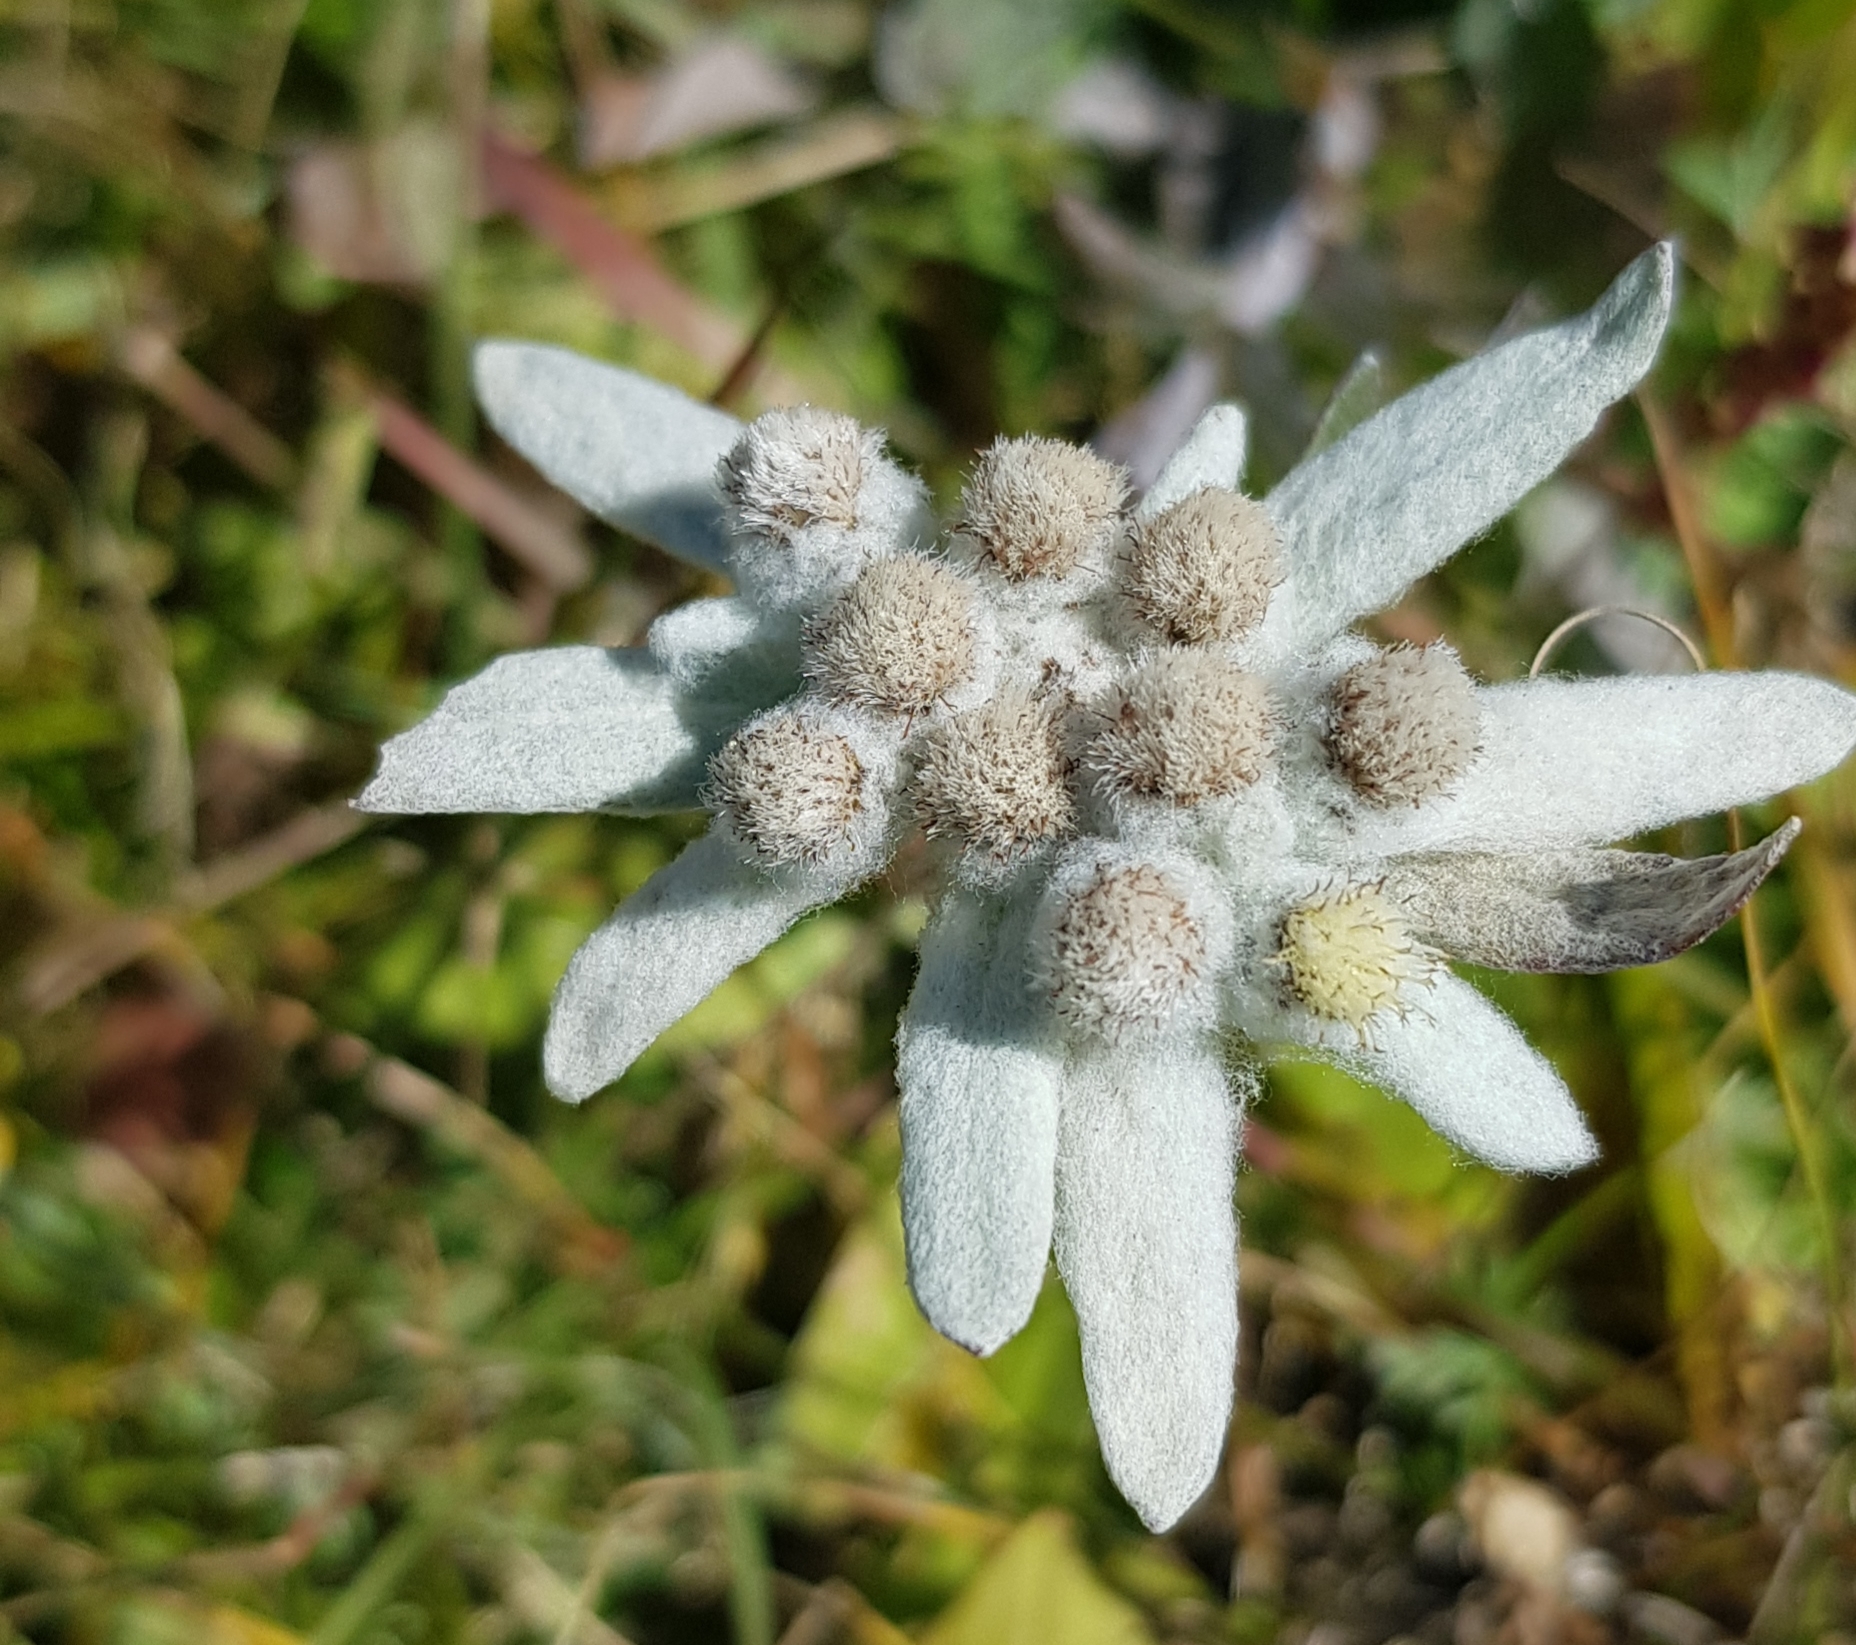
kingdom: Plantae
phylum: Tracheophyta
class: Magnoliopsida
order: Asterales
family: Asteraceae
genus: Leontopodium
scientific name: Leontopodium leontopodinum
